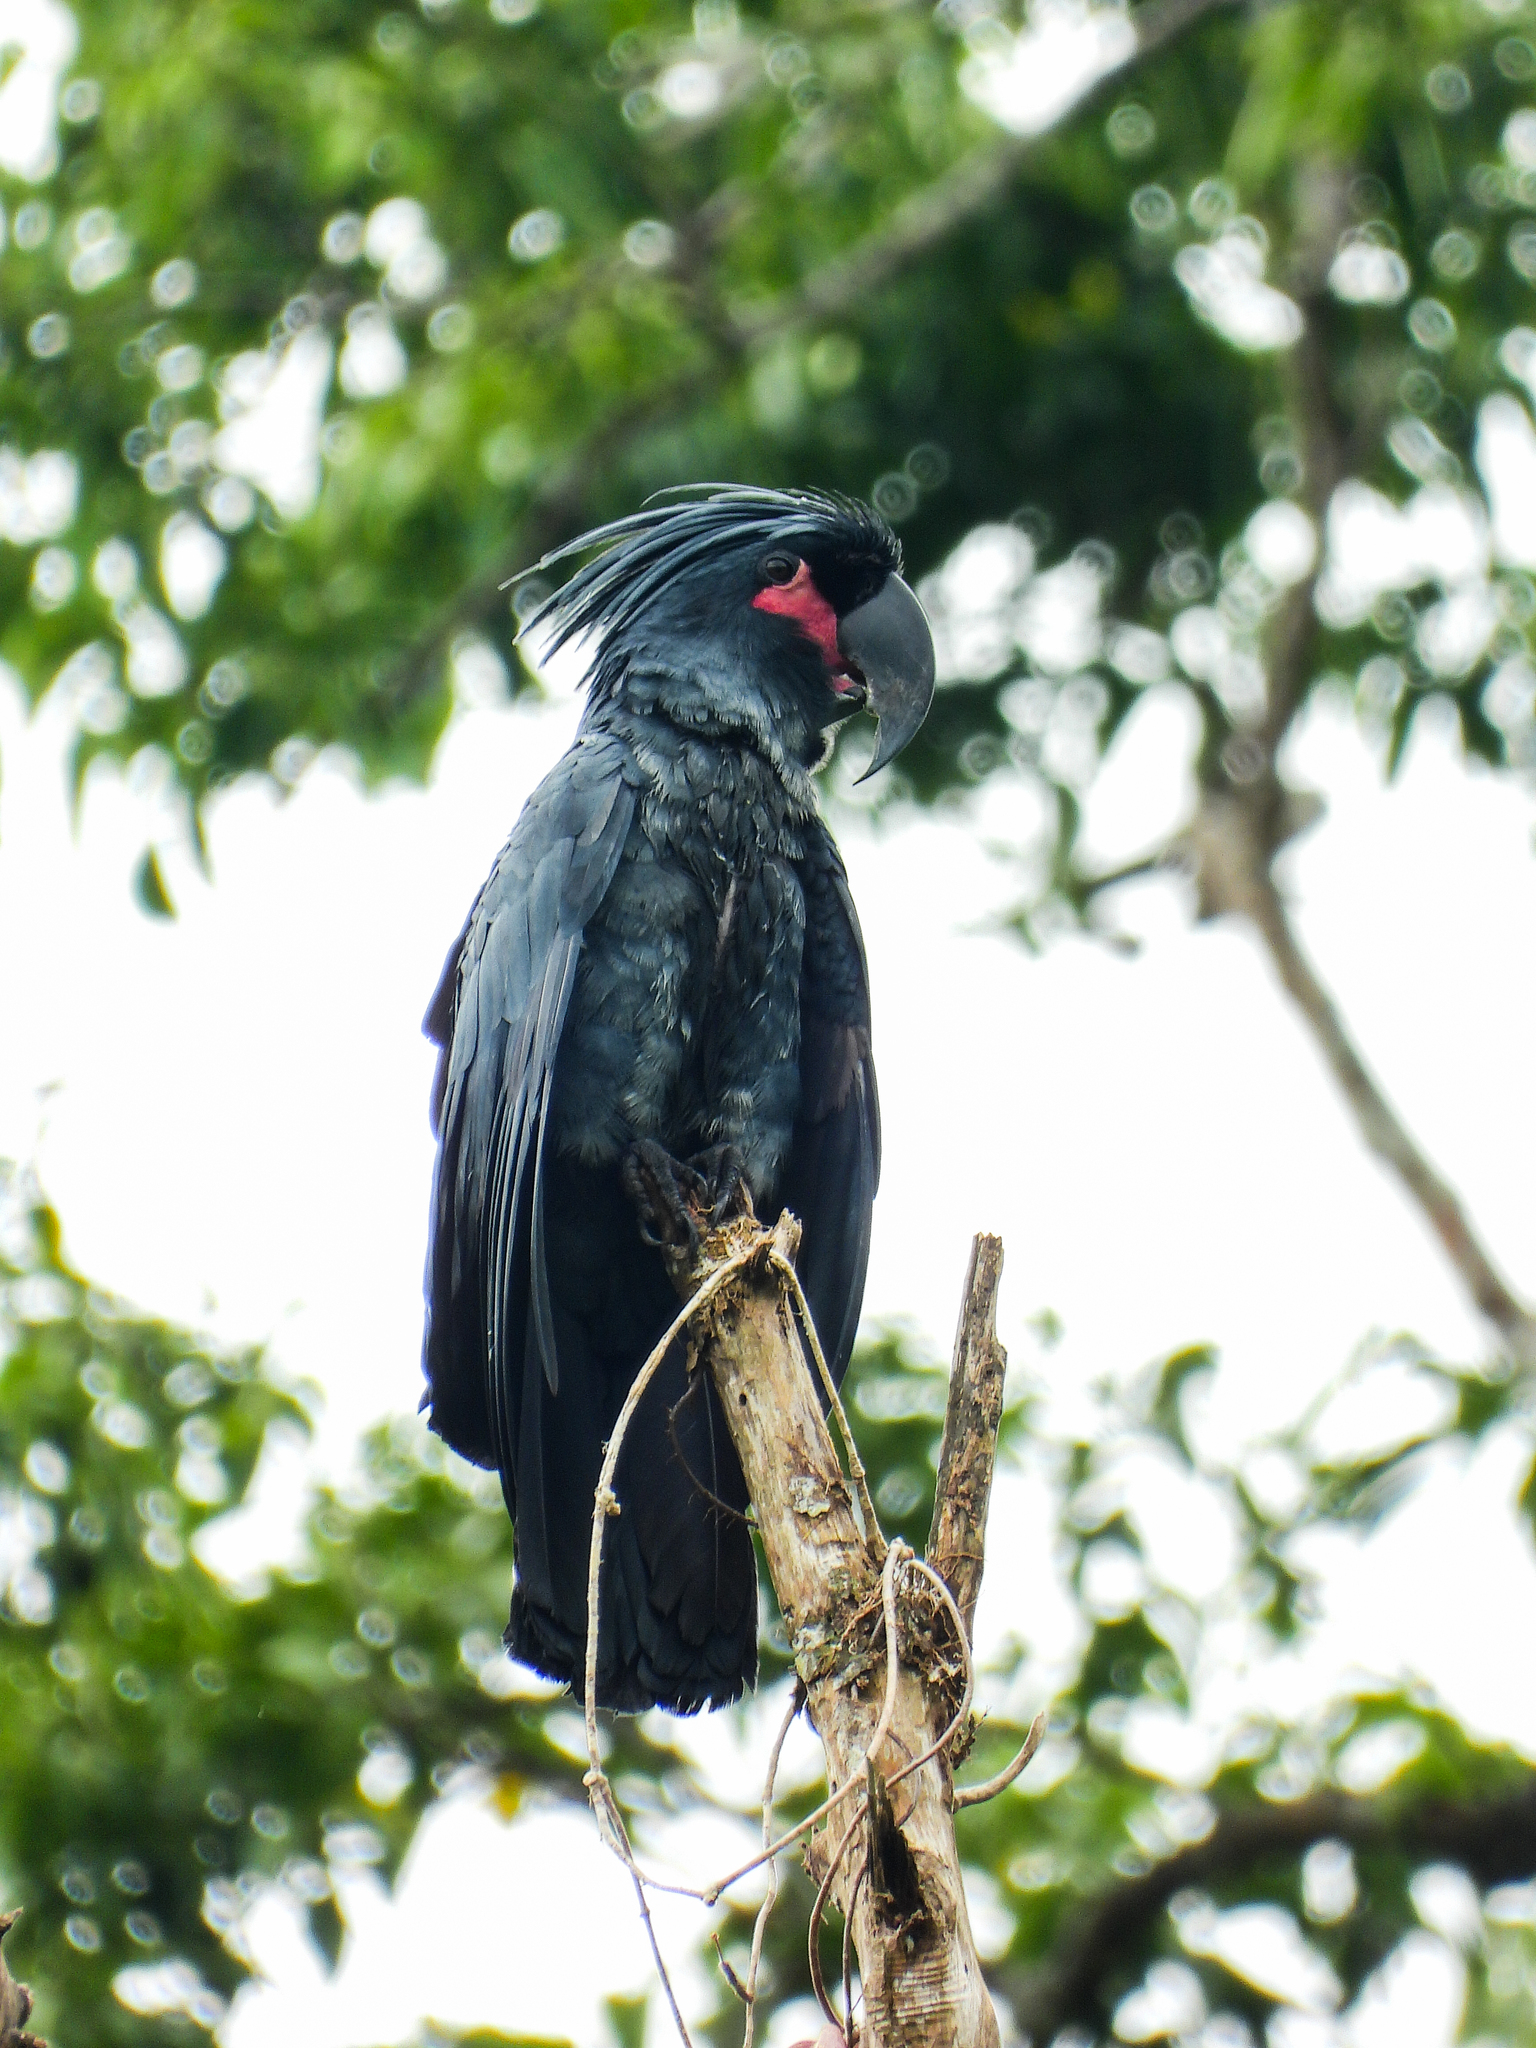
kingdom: Animalia
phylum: Chordata
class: Aves
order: Psittaciformes
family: Psittacidae
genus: Probosciger
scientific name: Probosciger aterrimus
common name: Palm cockatoo
